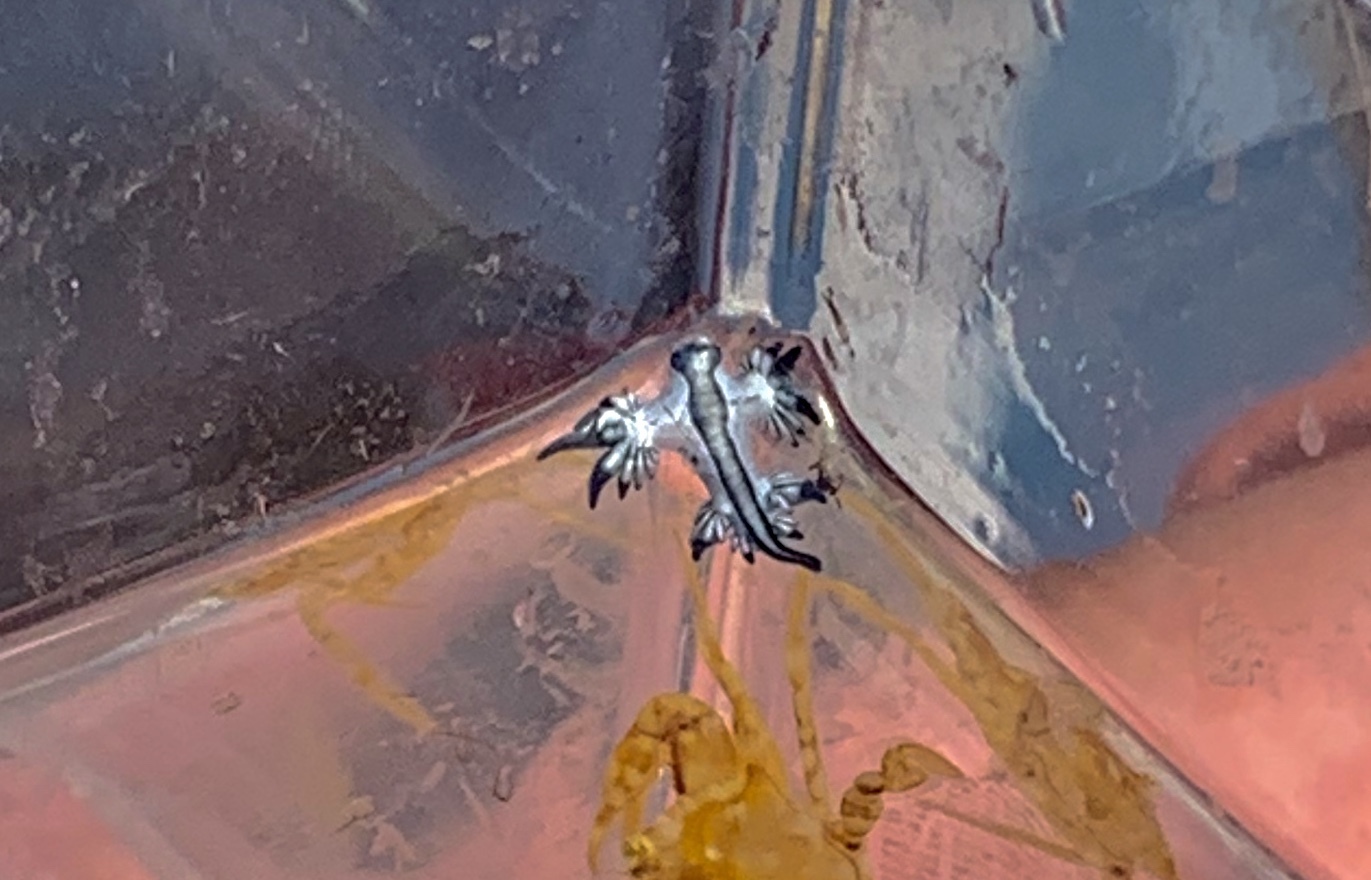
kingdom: Animalia
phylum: Mollusca
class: Gastropoda
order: Nudibranchia
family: Glaucidae
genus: Glaucus
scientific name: Glaucus atlanticus
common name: Purple ocean slug
